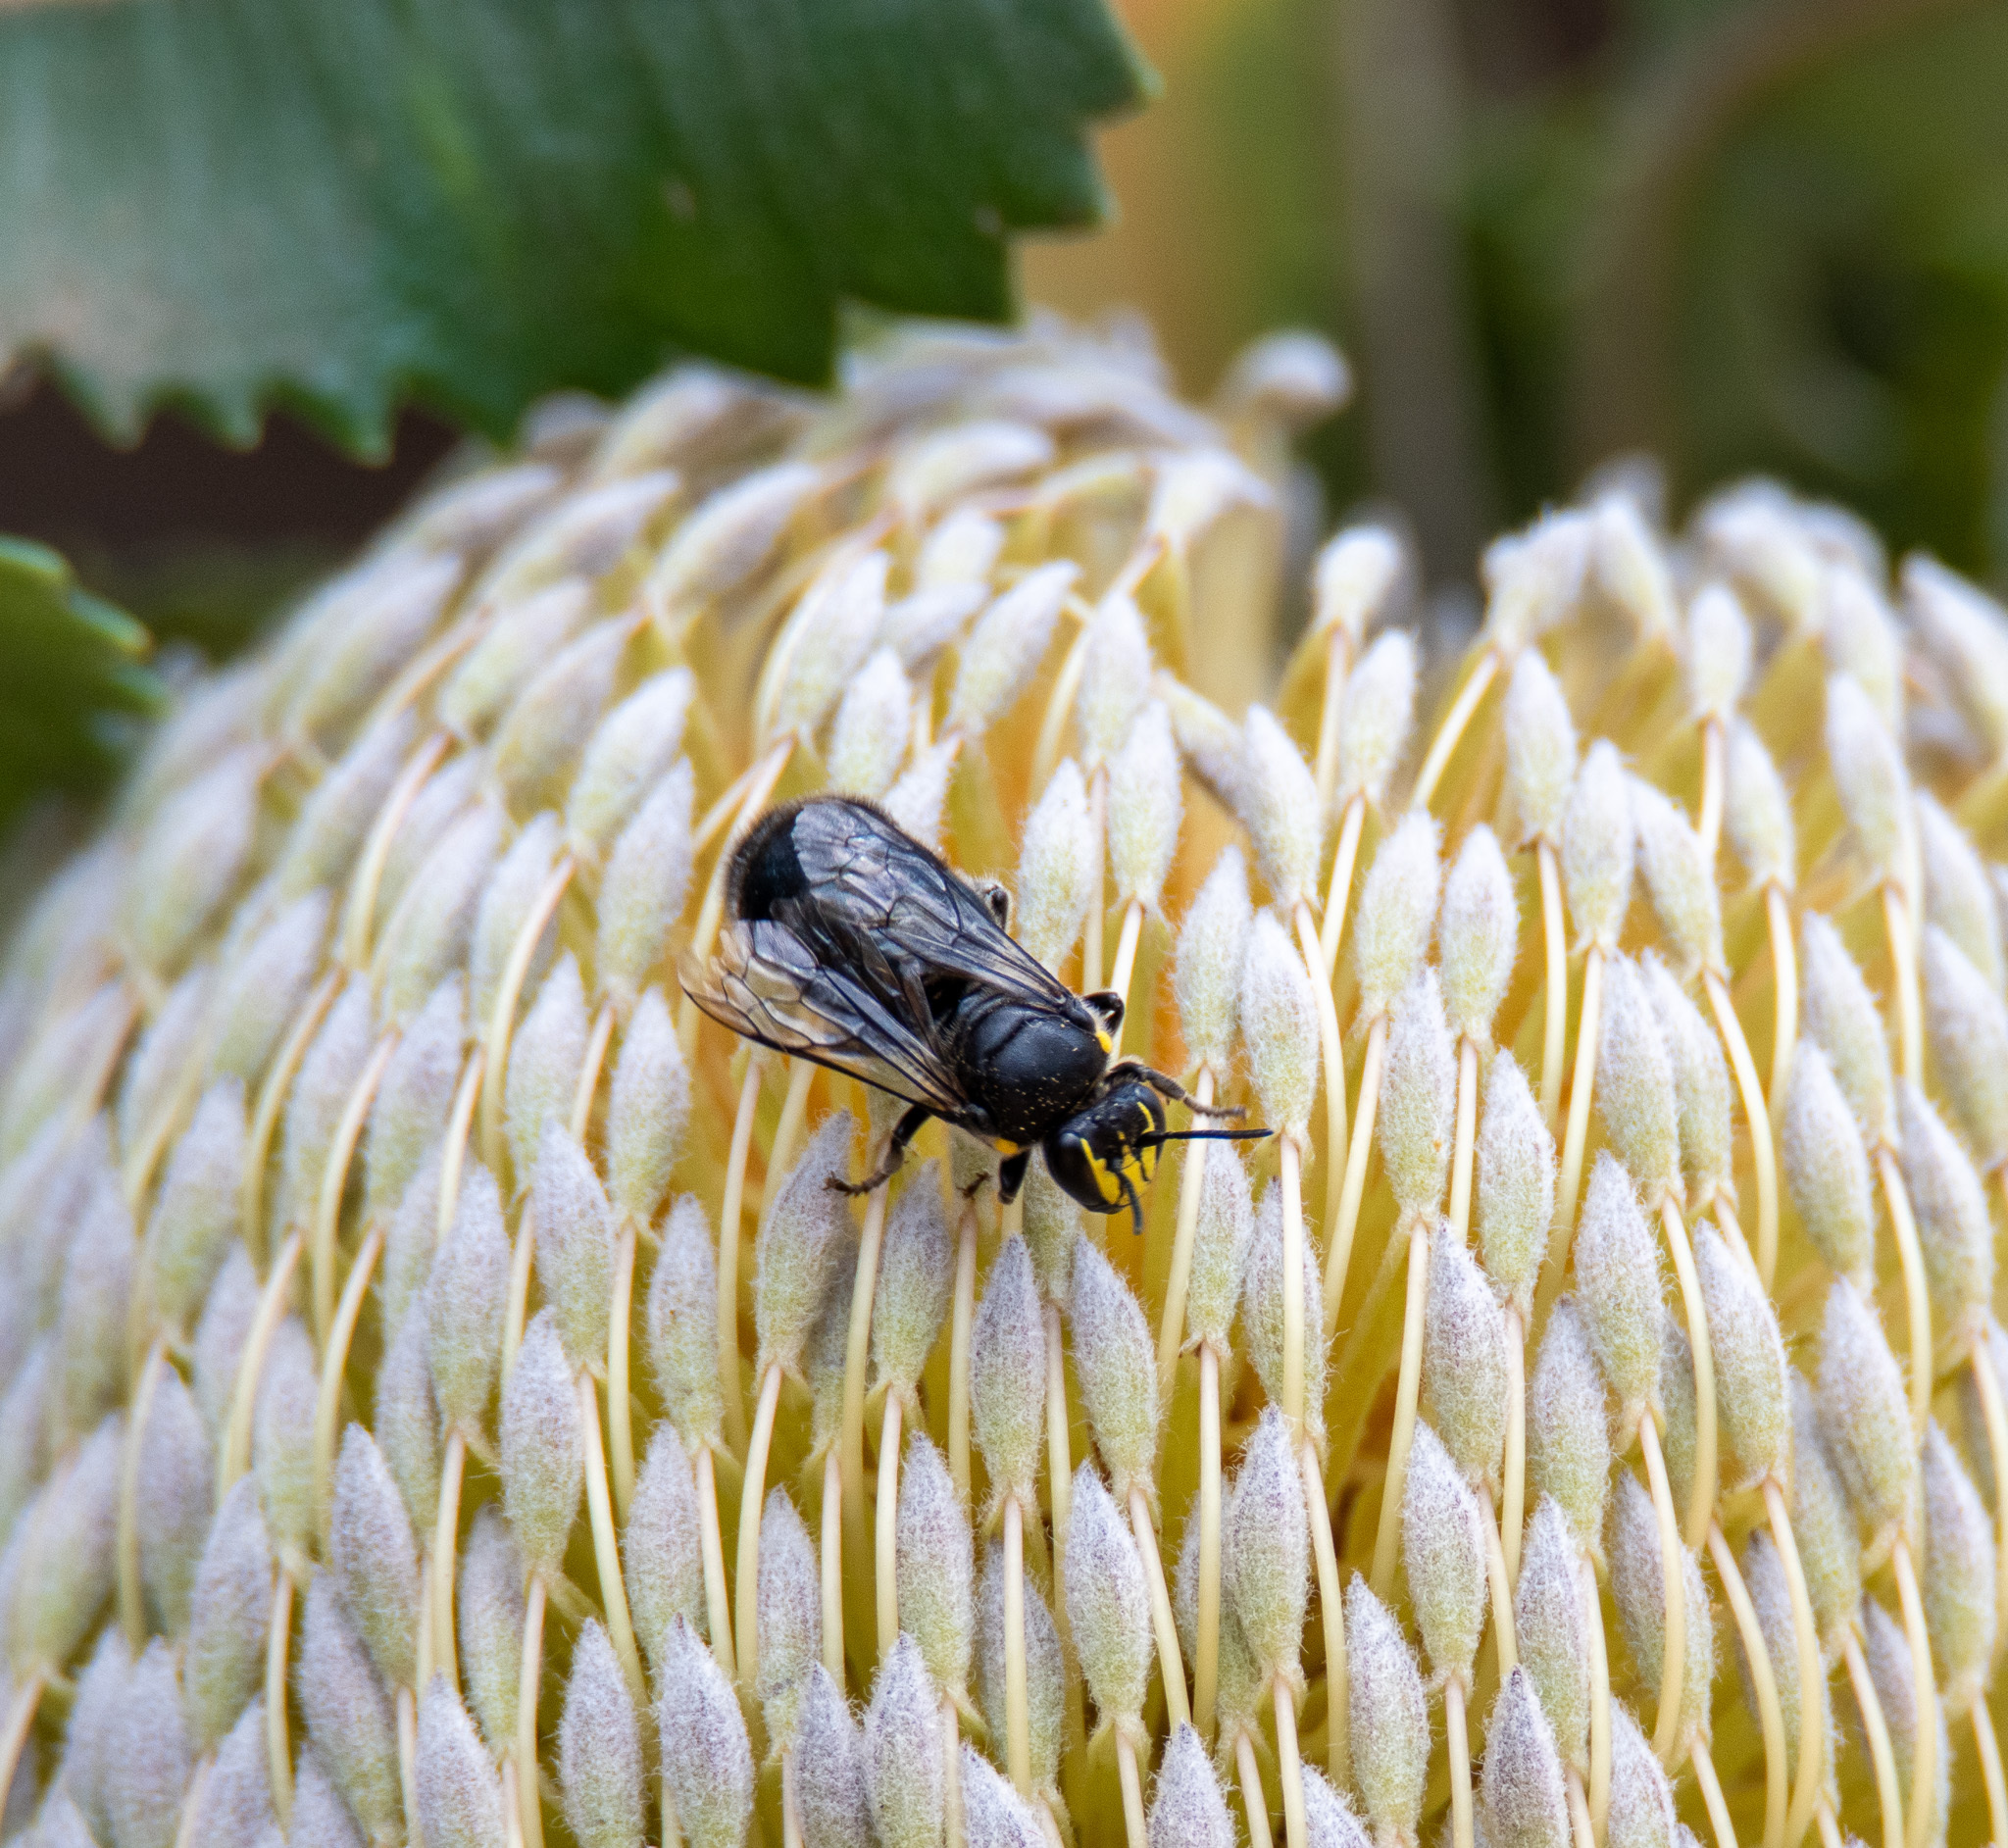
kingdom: Animalia
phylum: Arthropoda
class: Insecta
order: Hymenoptera
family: Colletidae
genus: Hylaeus
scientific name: Hylaeus alcyoneus
